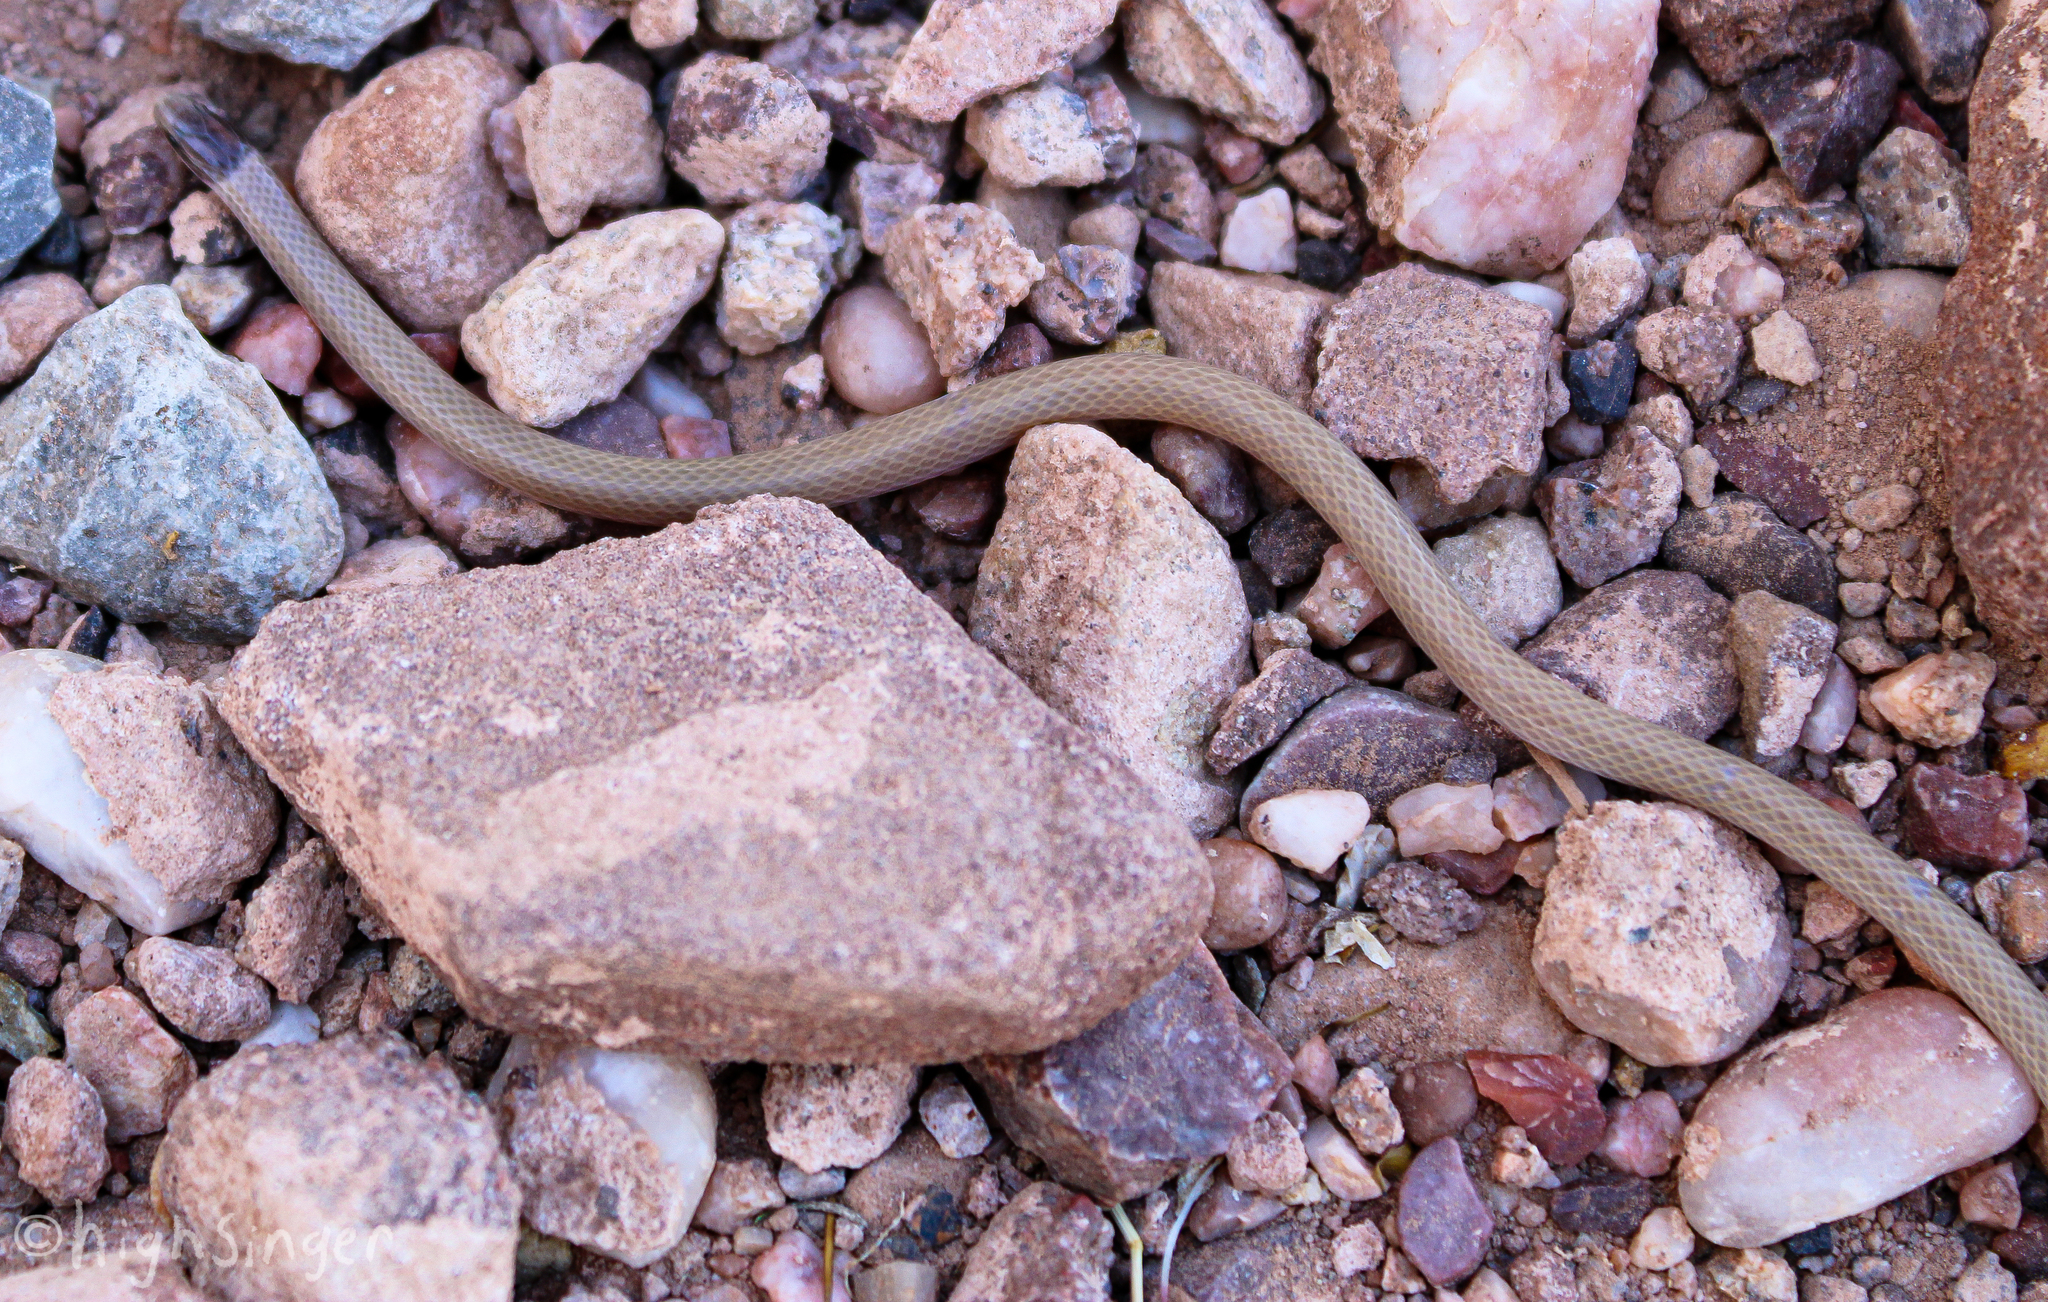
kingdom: Animalia
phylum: Chordata
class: Squamata
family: Colubridae
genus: Tantilla
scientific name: Tantilla hobartsmithi
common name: Southwestern blackhead snake
